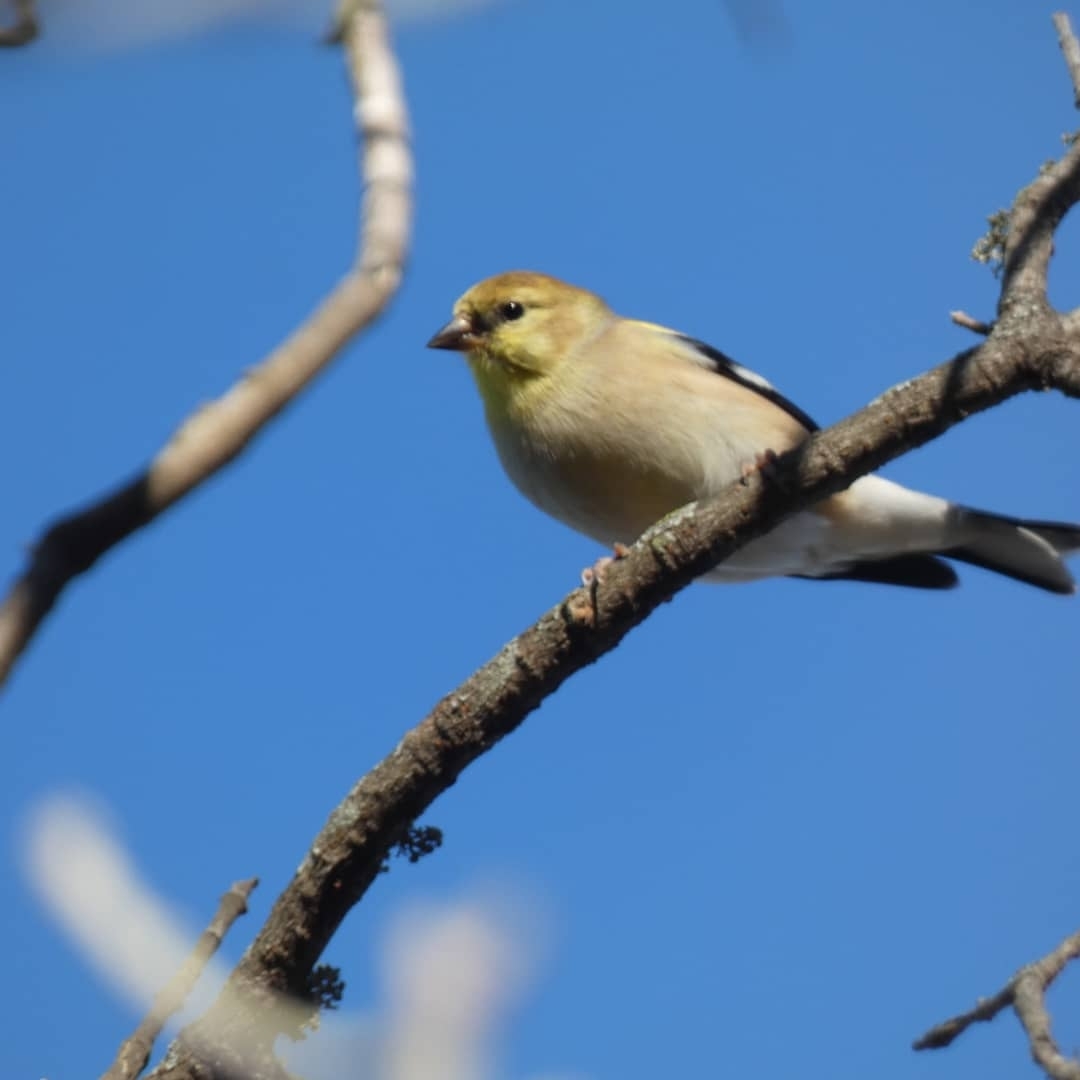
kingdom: Animalia
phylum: Chordata
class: Aves
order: Passeriformes
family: Fringillidae
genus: Spinus
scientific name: Spinus tristis
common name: American goldfinch
